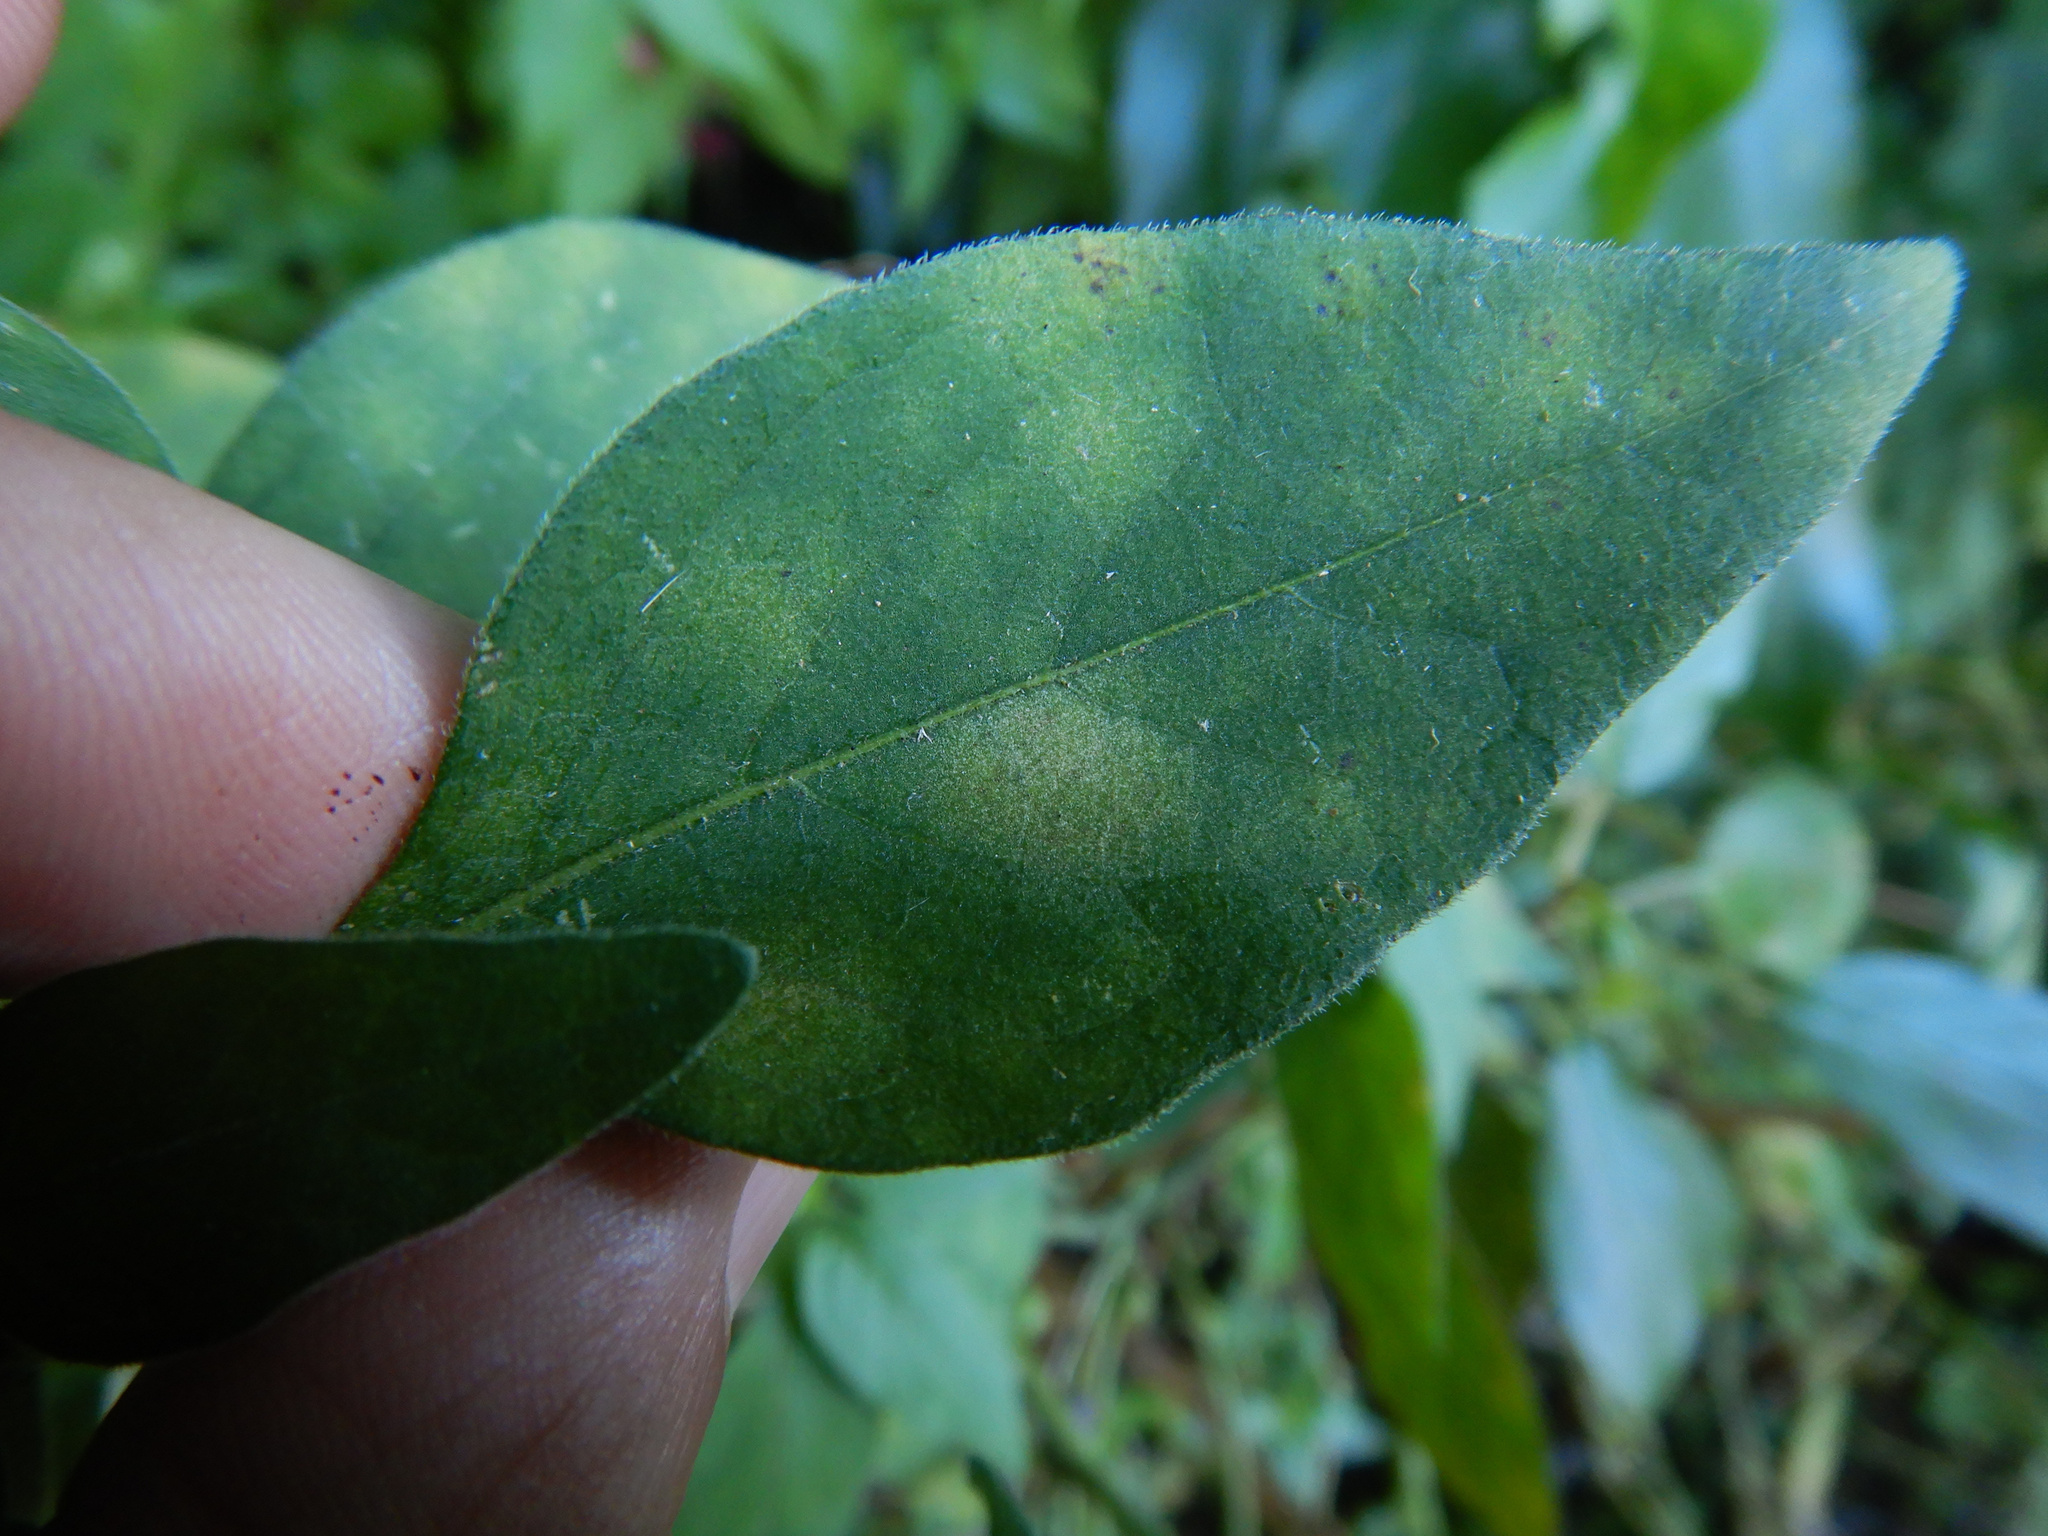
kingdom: Fungi
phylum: Ascomycota
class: Dothideomycetes
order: Mycosphaerellales
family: Mycosphaerellaceae
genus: Pseudocercospora
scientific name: Pseudocercospora atromarginalis
